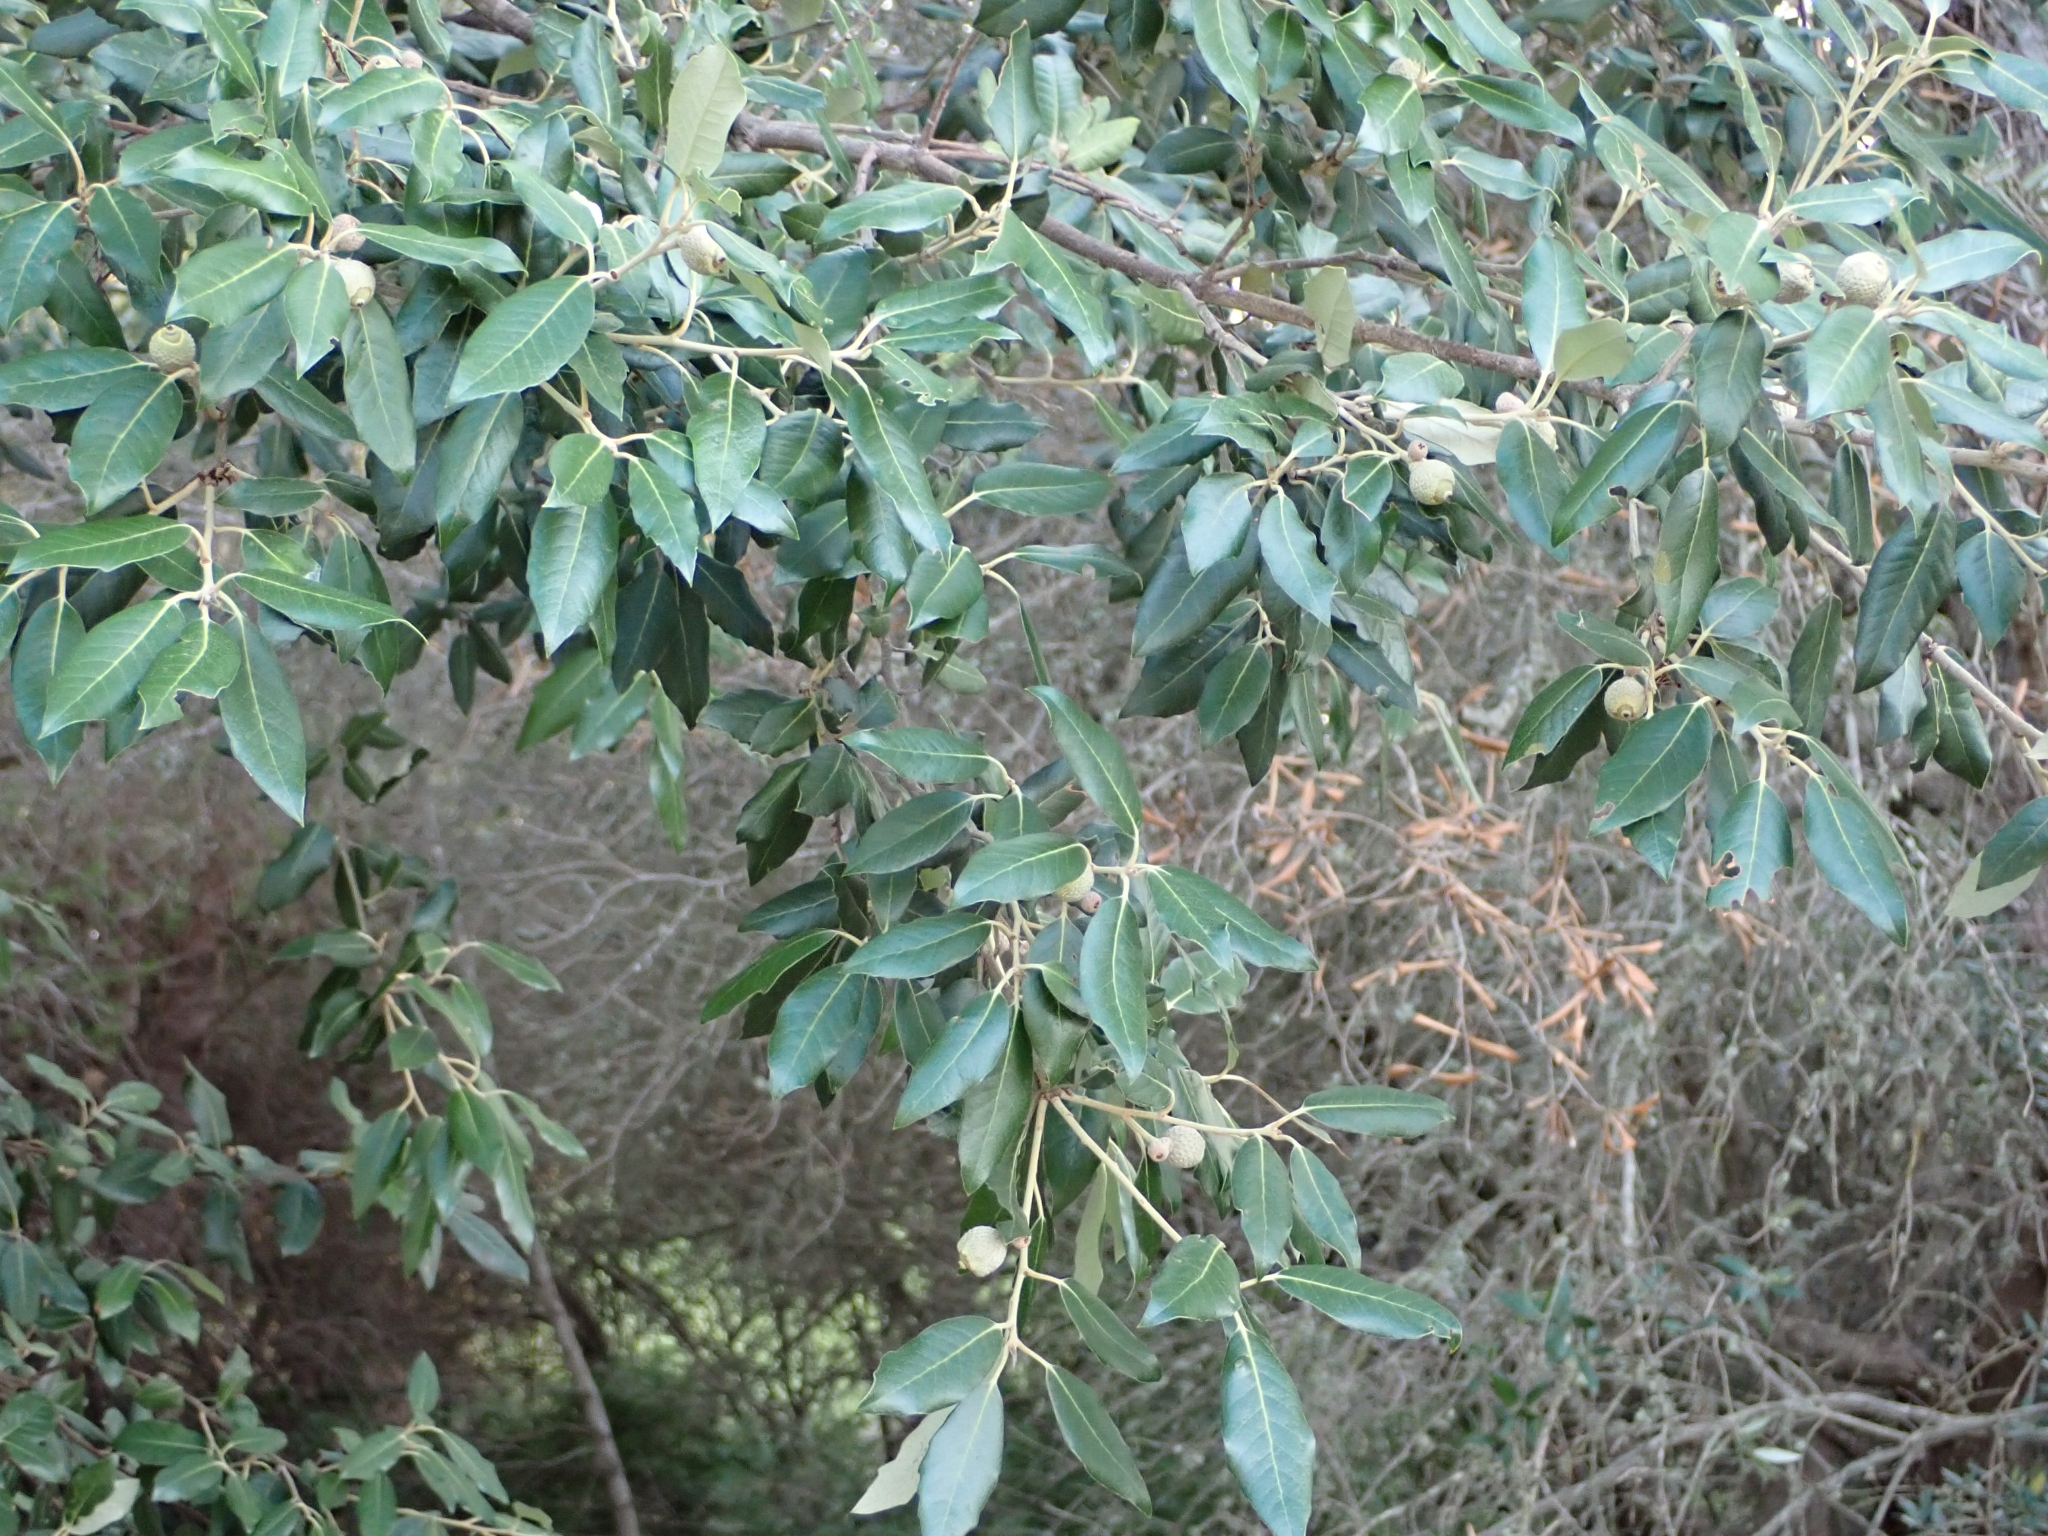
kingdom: Plantae
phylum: Tracheophyta
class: Magnoliopsida
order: Fagales
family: Fagaceae
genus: Quercus
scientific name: Quercus ilex
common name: Evergreen oak
